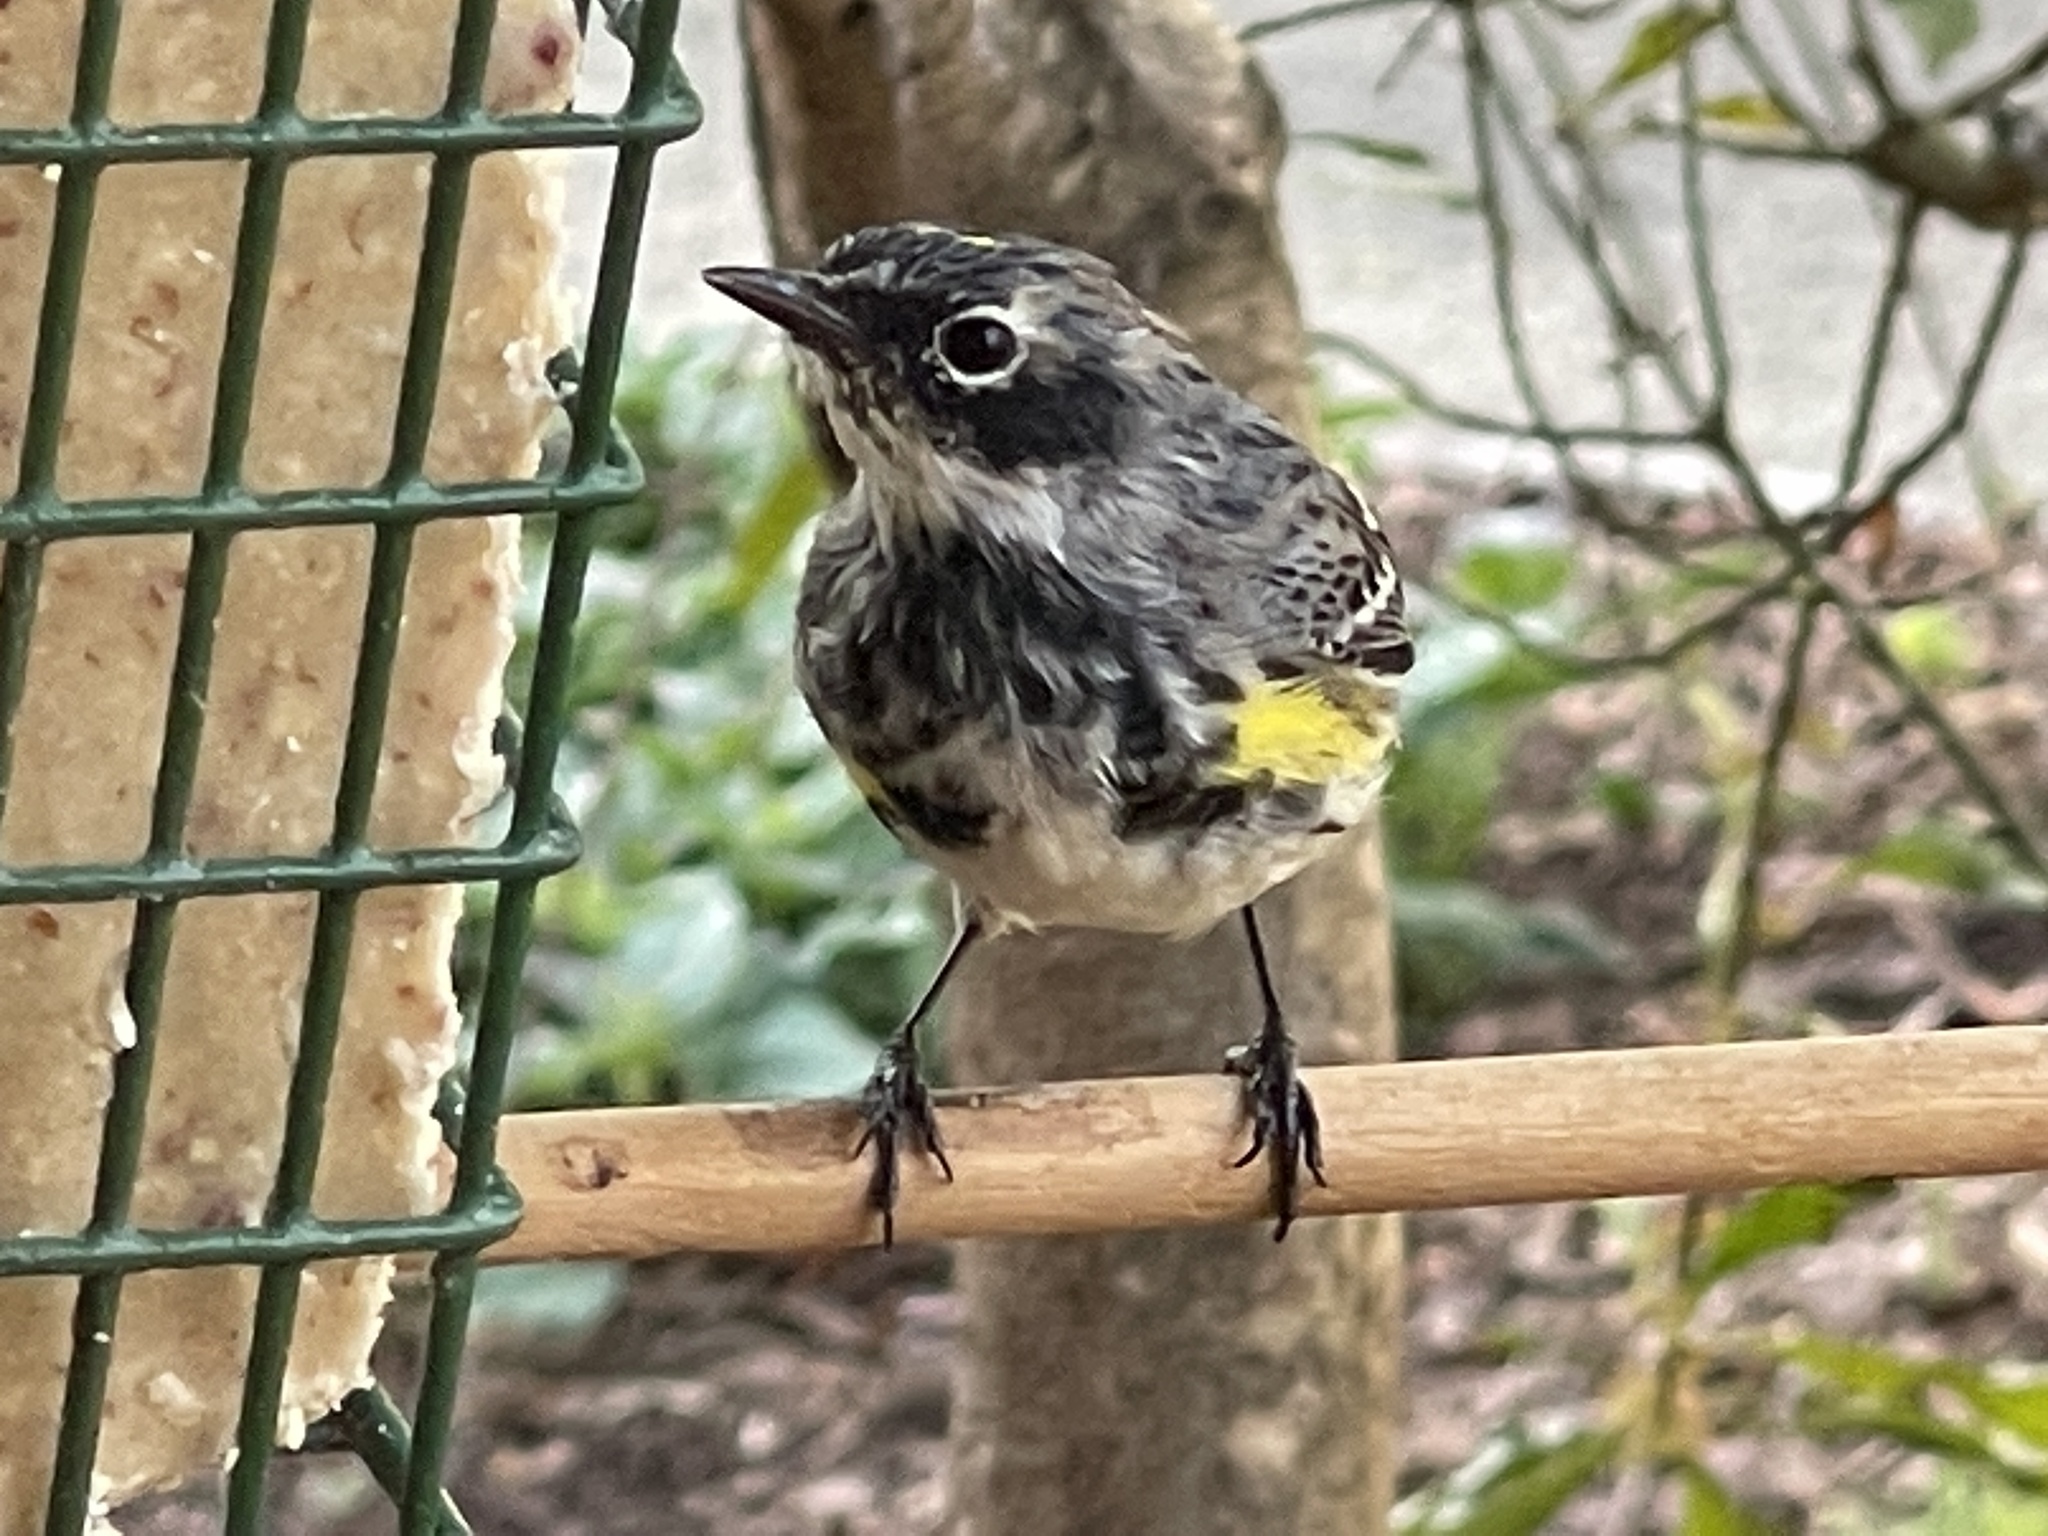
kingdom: Animalia
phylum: Chordata
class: Aves
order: Passeriformes
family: Parulidae
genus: Setophaga
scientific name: Setophaga coronata
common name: Myrtle warbler
